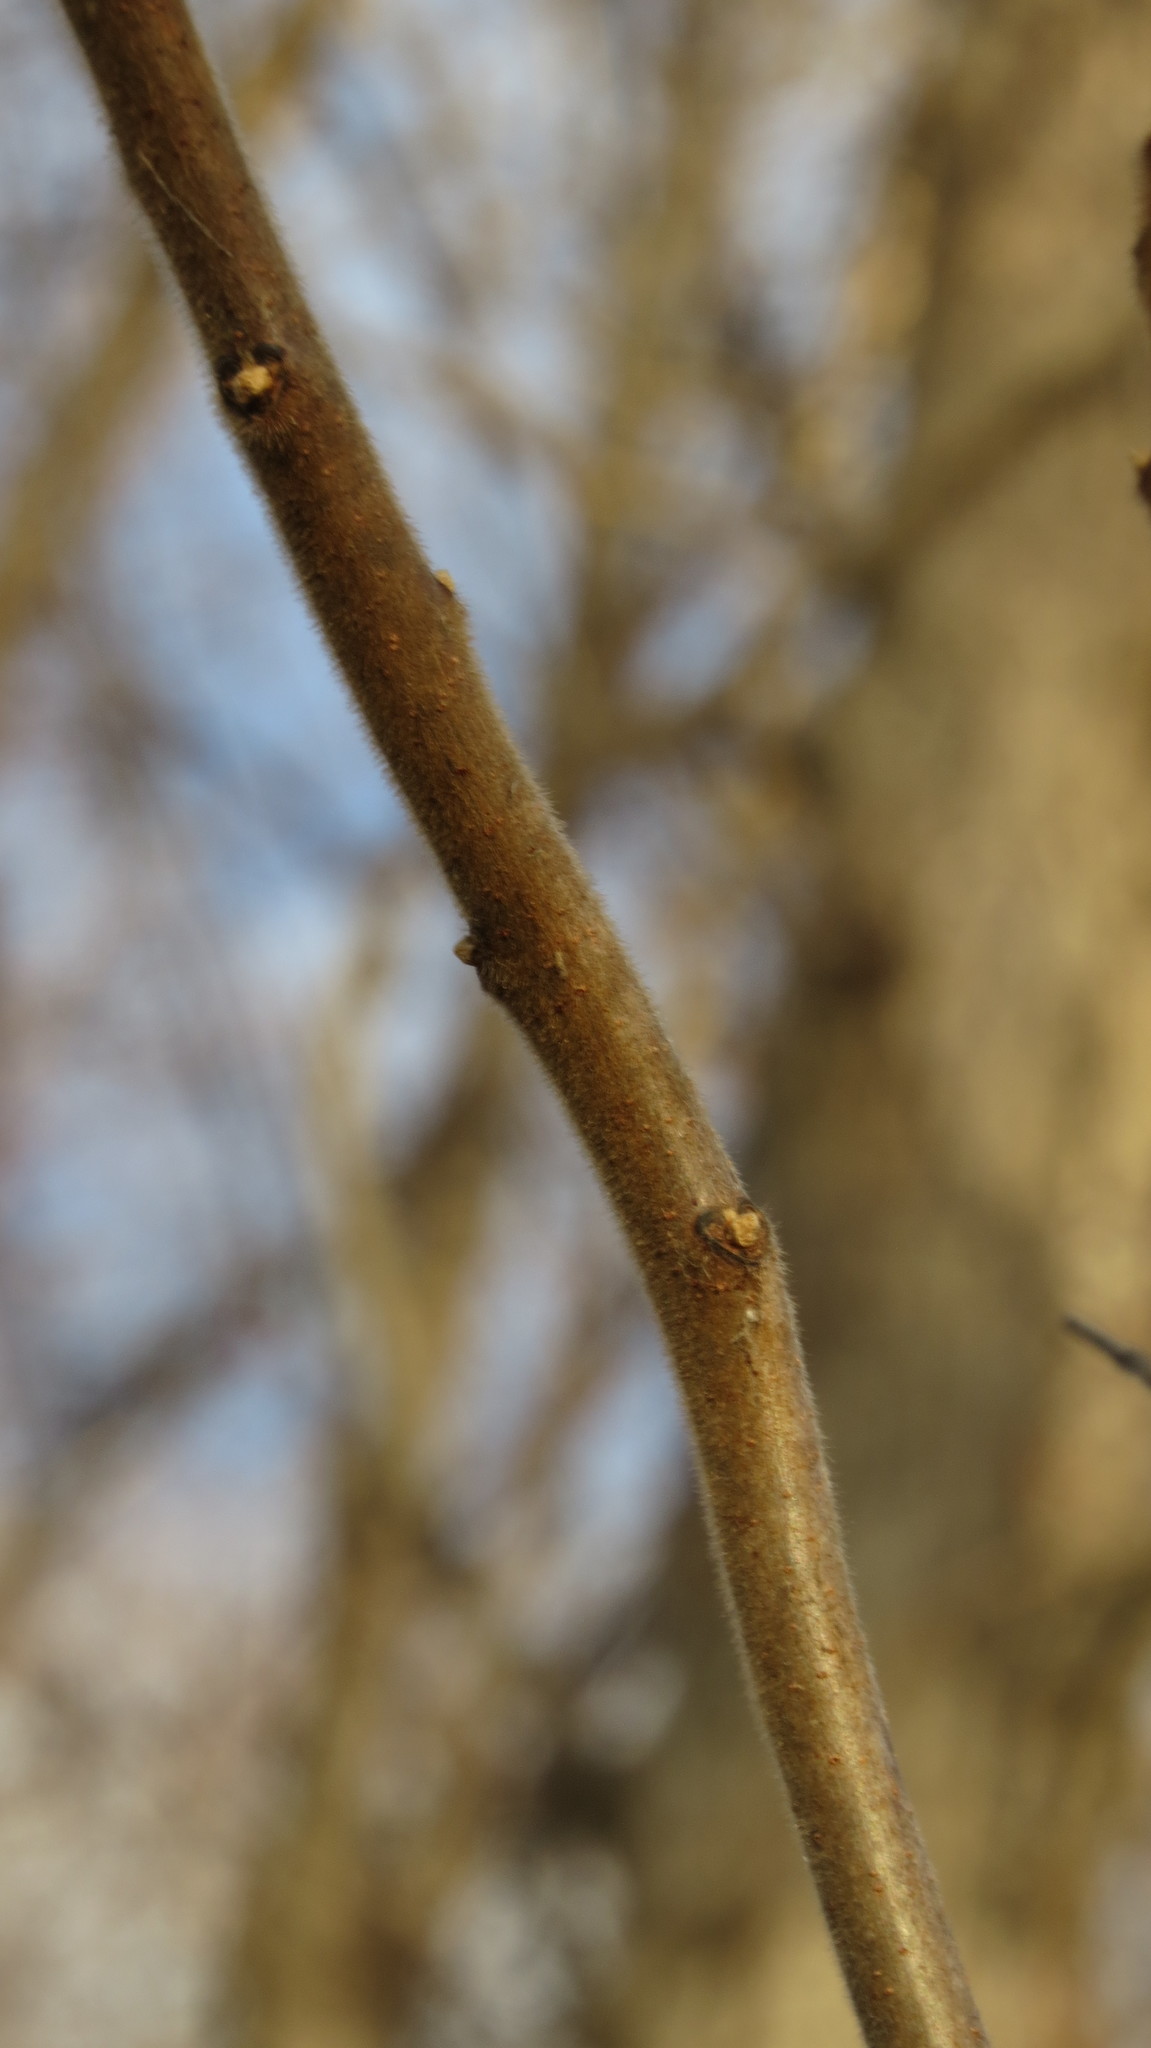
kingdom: Plantae
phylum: Tracheophyta
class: Magnoliopsida
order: Sapindales
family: Anacardiaceae
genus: Rhus
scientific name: Rhus typhina
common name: Staghorn sumac
